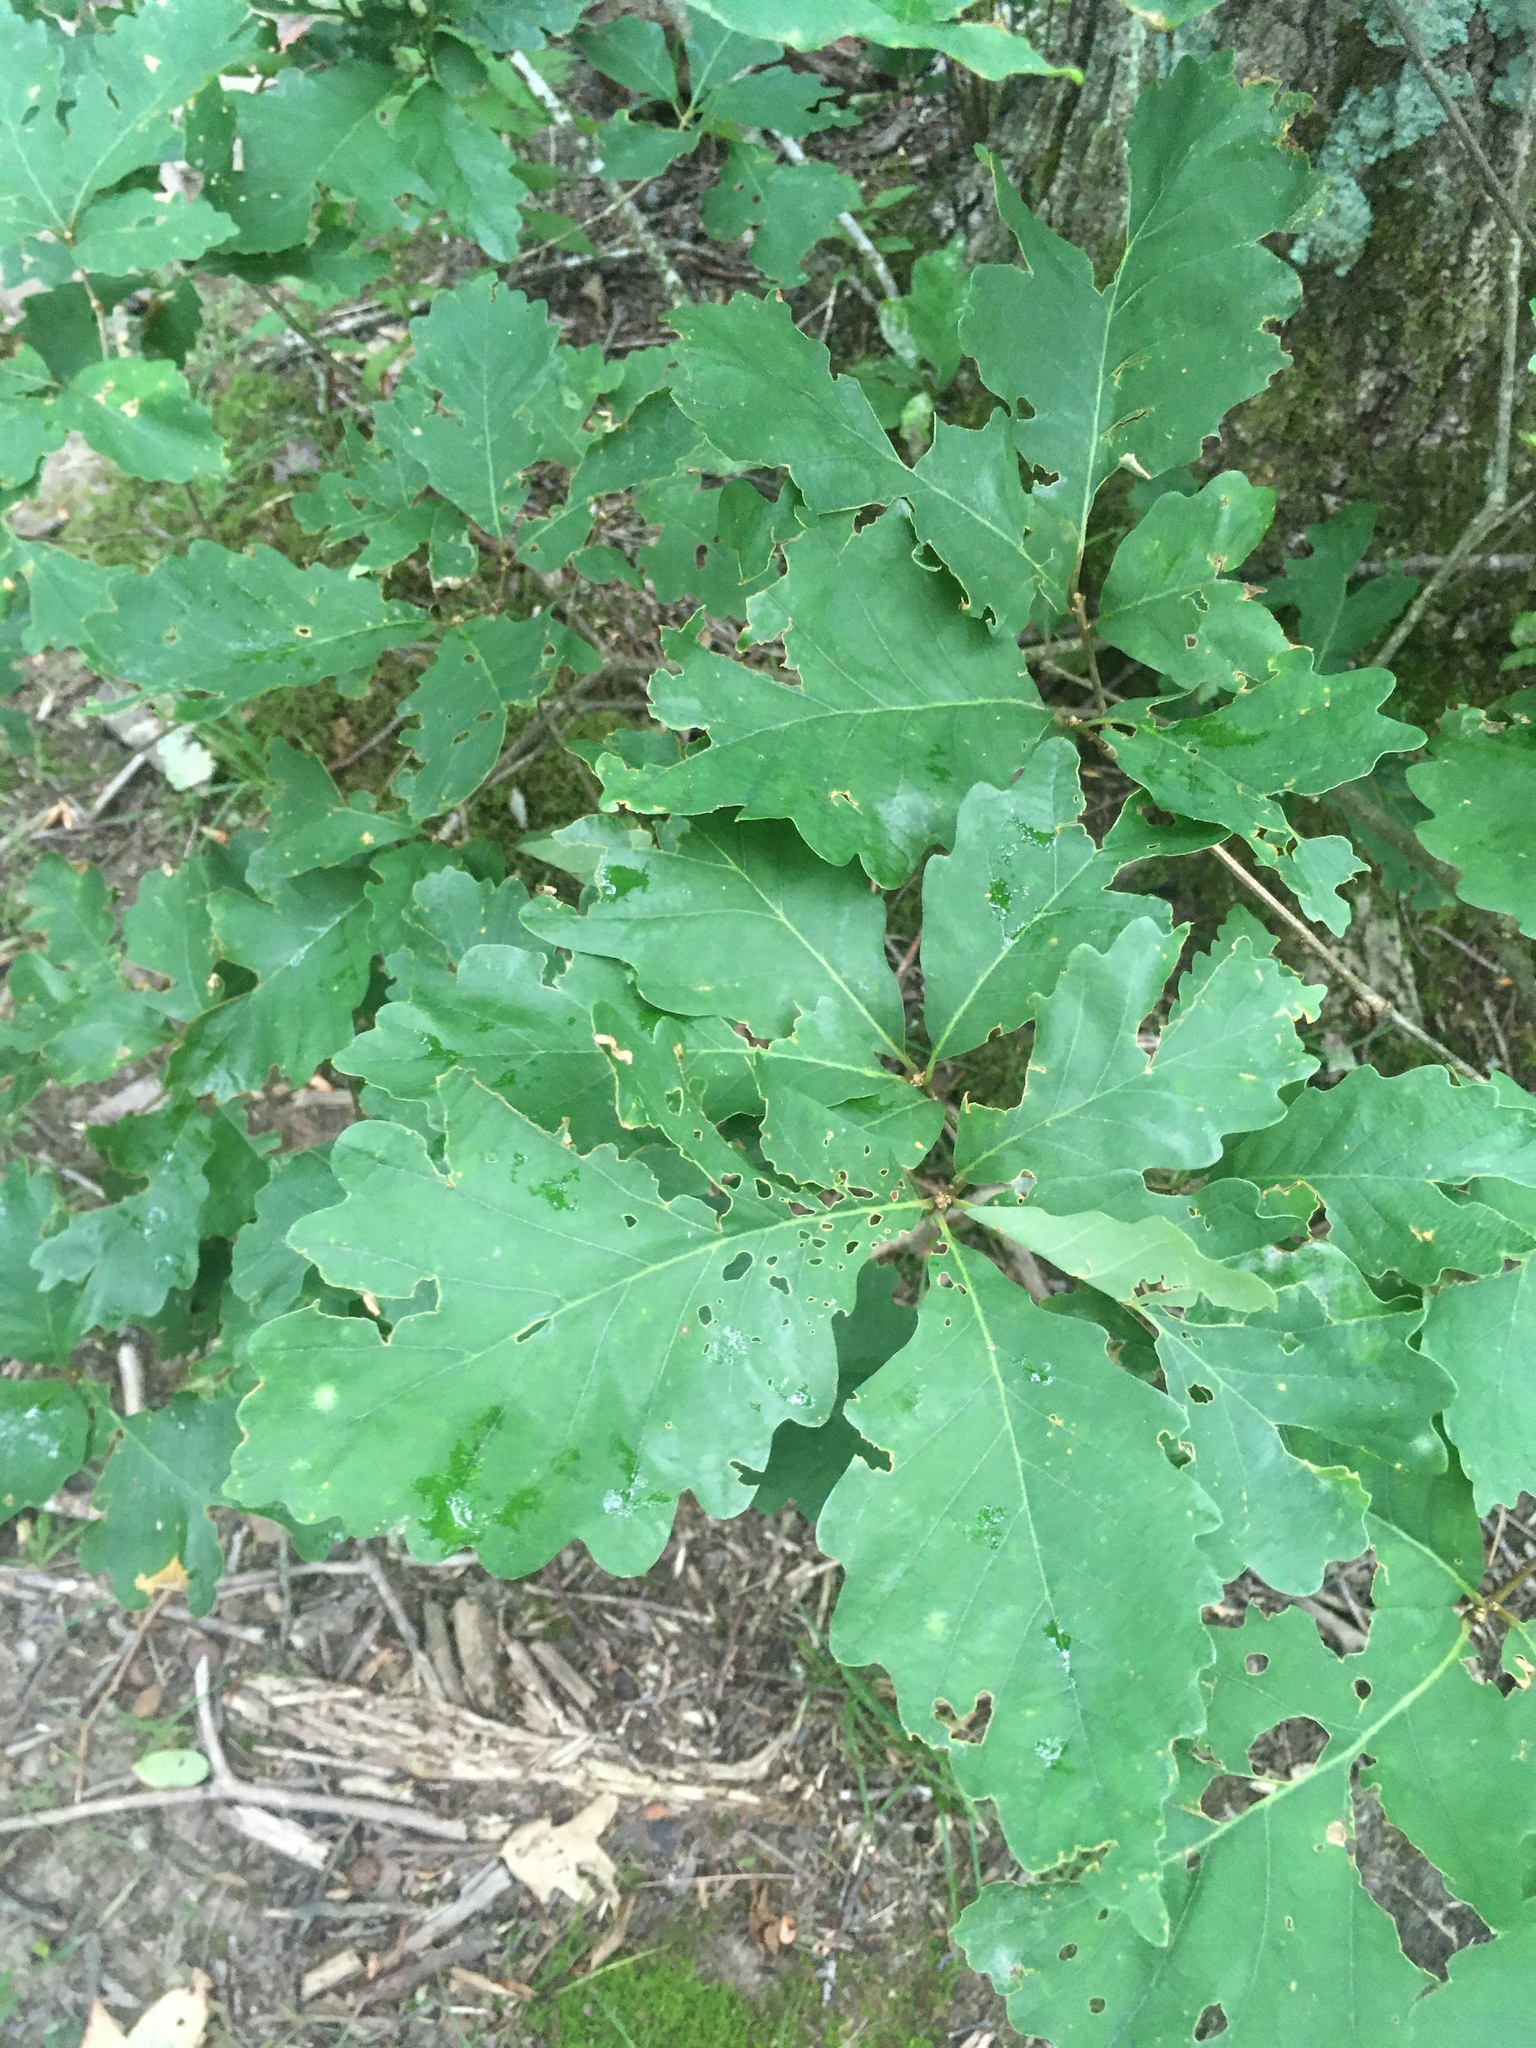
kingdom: Plantae
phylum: Tracheophyta
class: Magnoliopsida
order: Fagales
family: Fagaceae
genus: Quercus
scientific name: Quercus montana
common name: Chestnut oak
